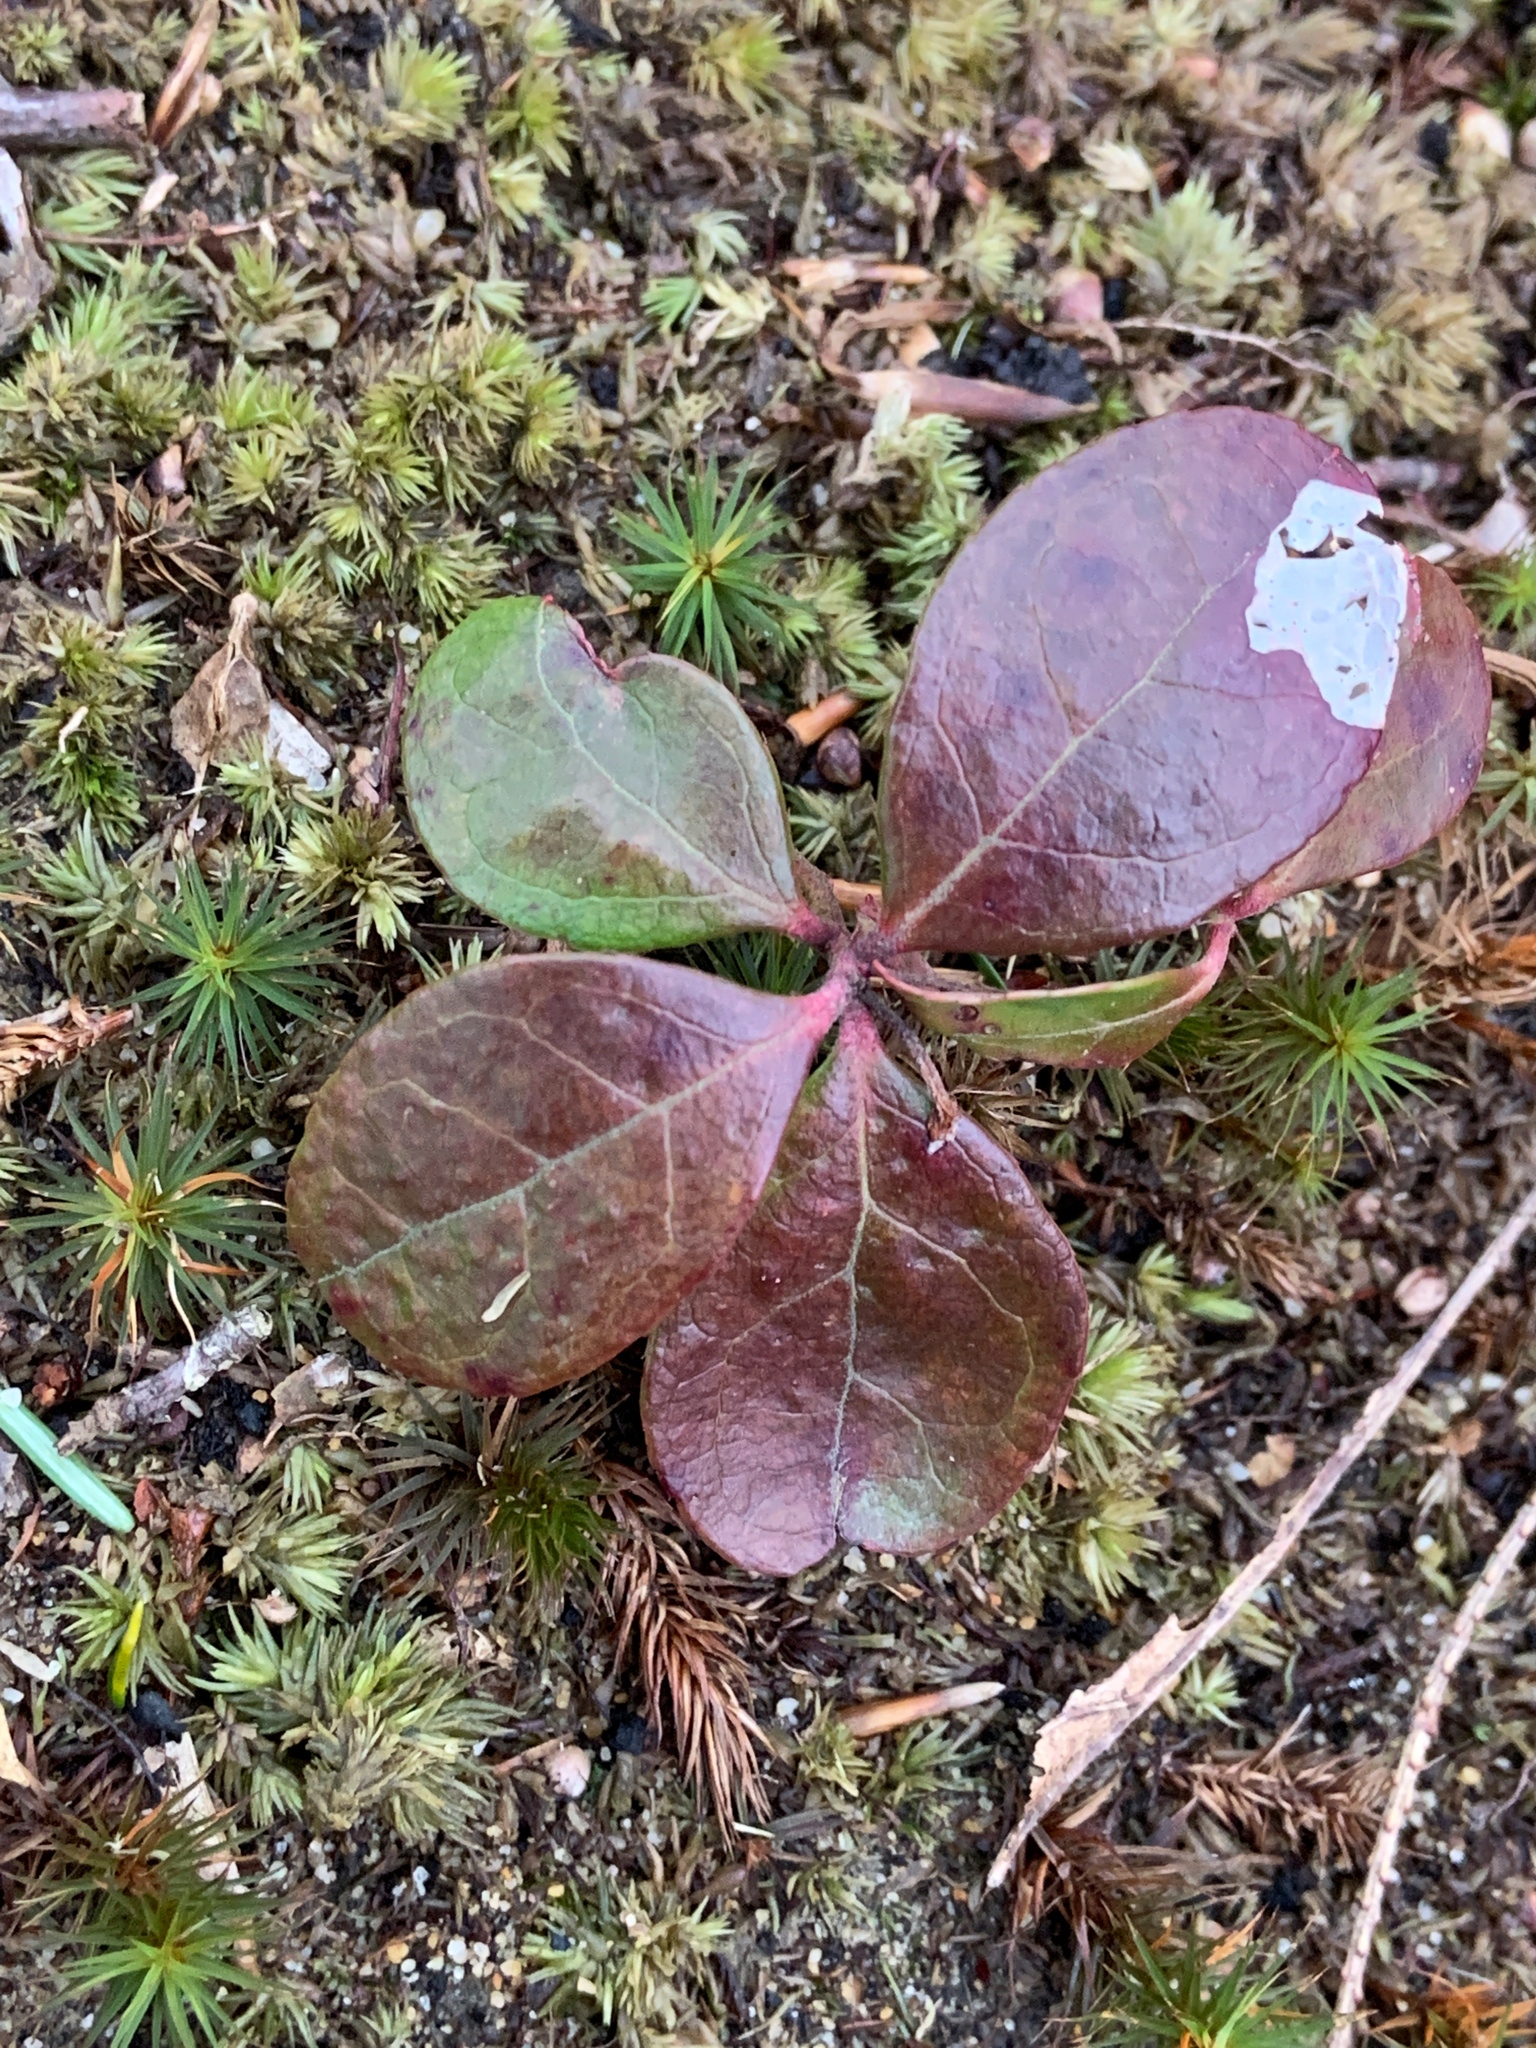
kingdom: Plantae
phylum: Tracheophyta
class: Magnoliopsida
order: Ericales
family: Ericaceae
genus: Gaultheria
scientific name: Gaultheria procumbens
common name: Checkerberry
